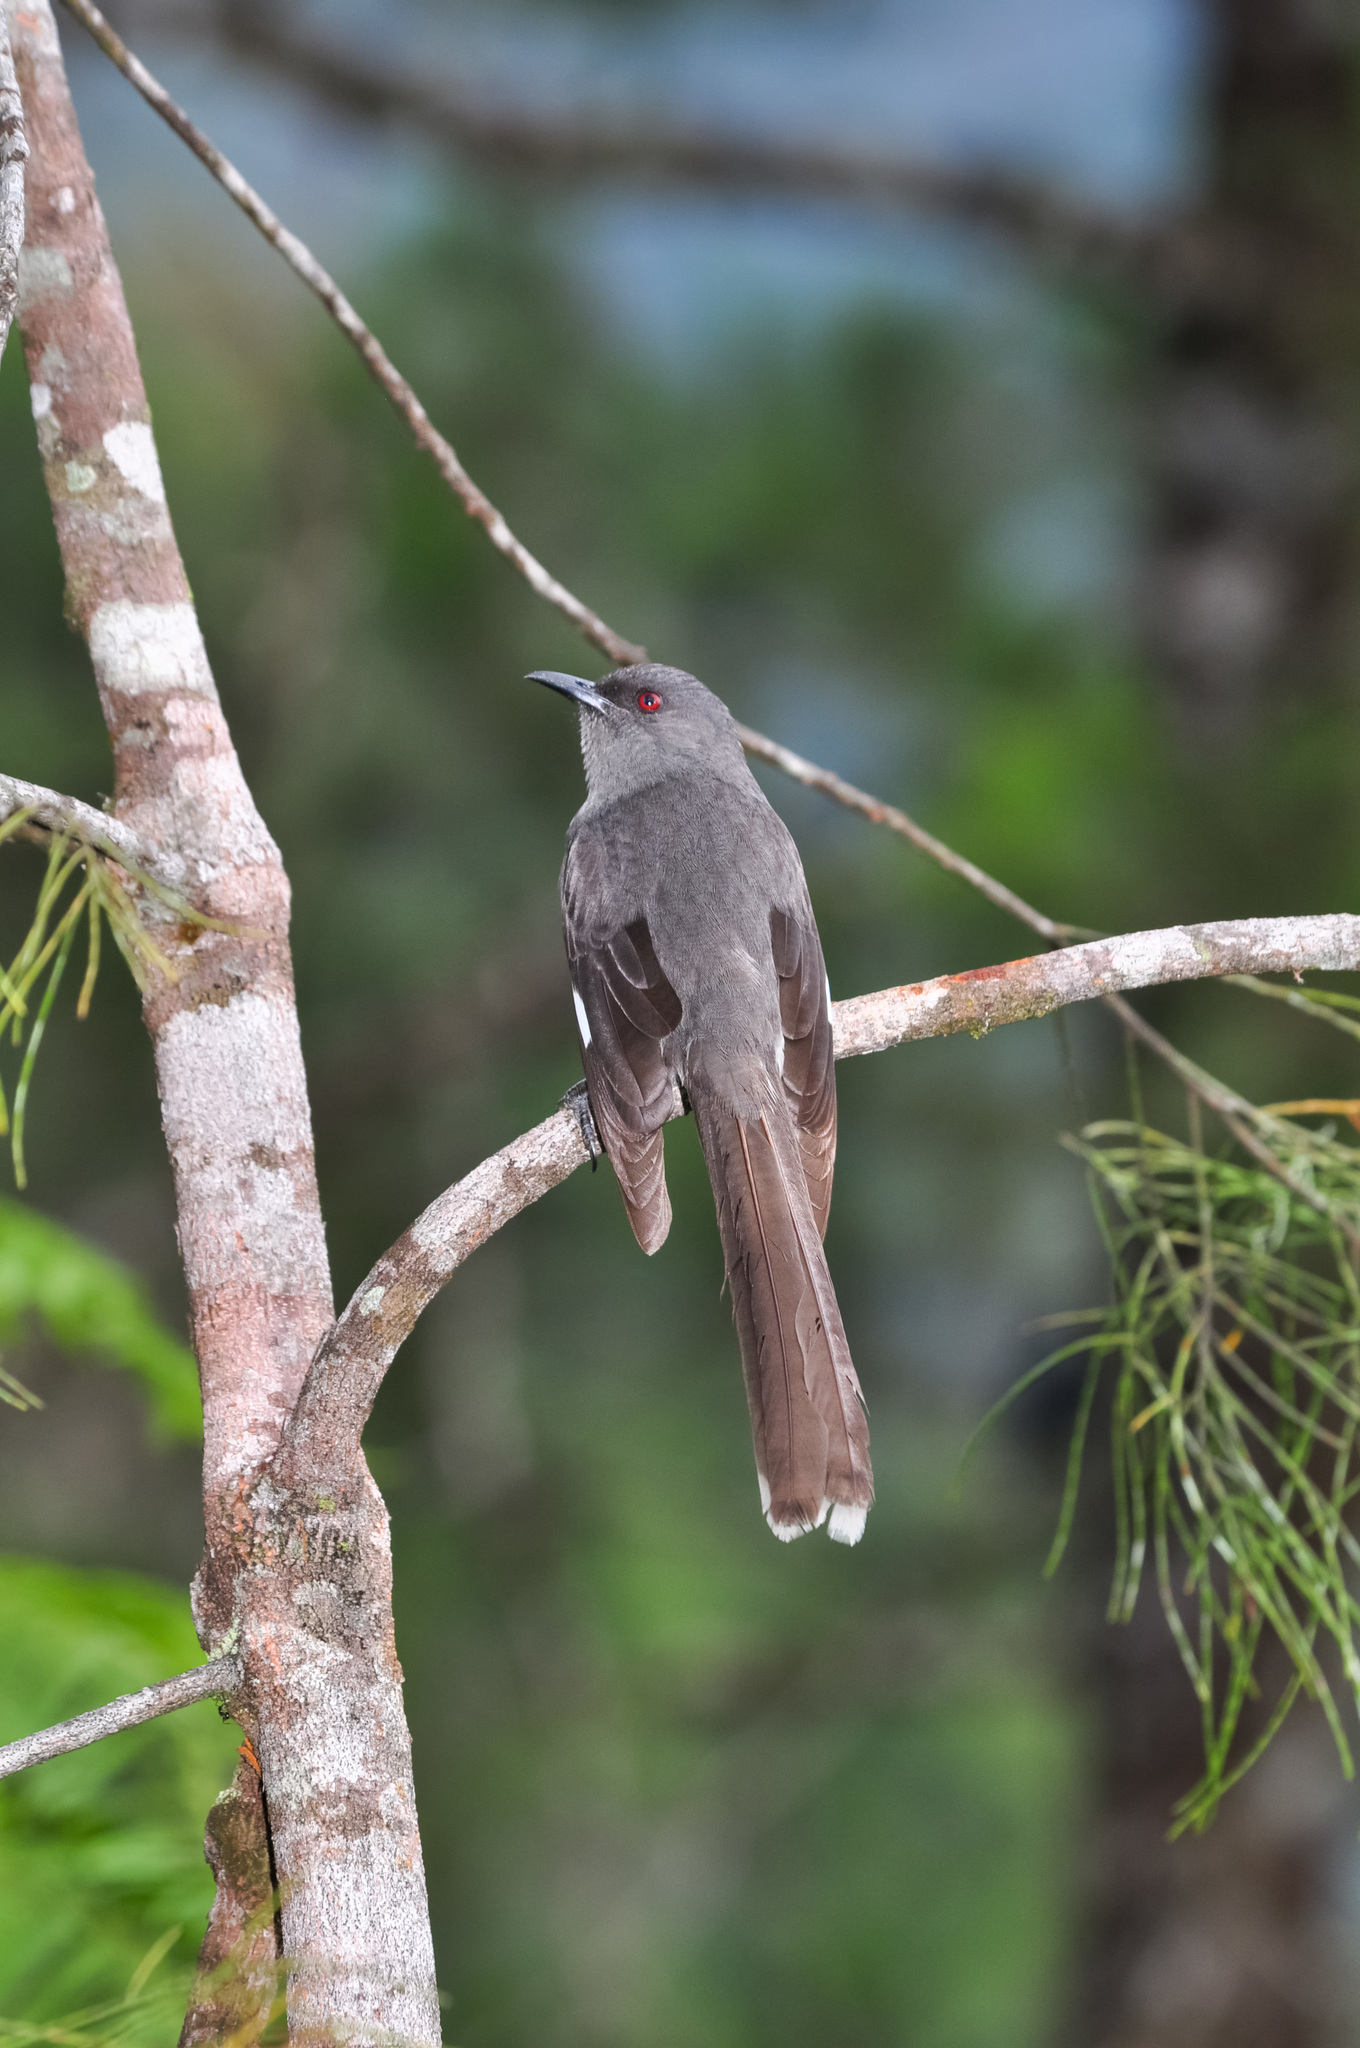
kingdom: Animalia
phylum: Chordata
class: Aves
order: Passeriformes
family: Leiothrichidae
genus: Heterophasia
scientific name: Heterophasia picaoides
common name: Long-tailed sibia
